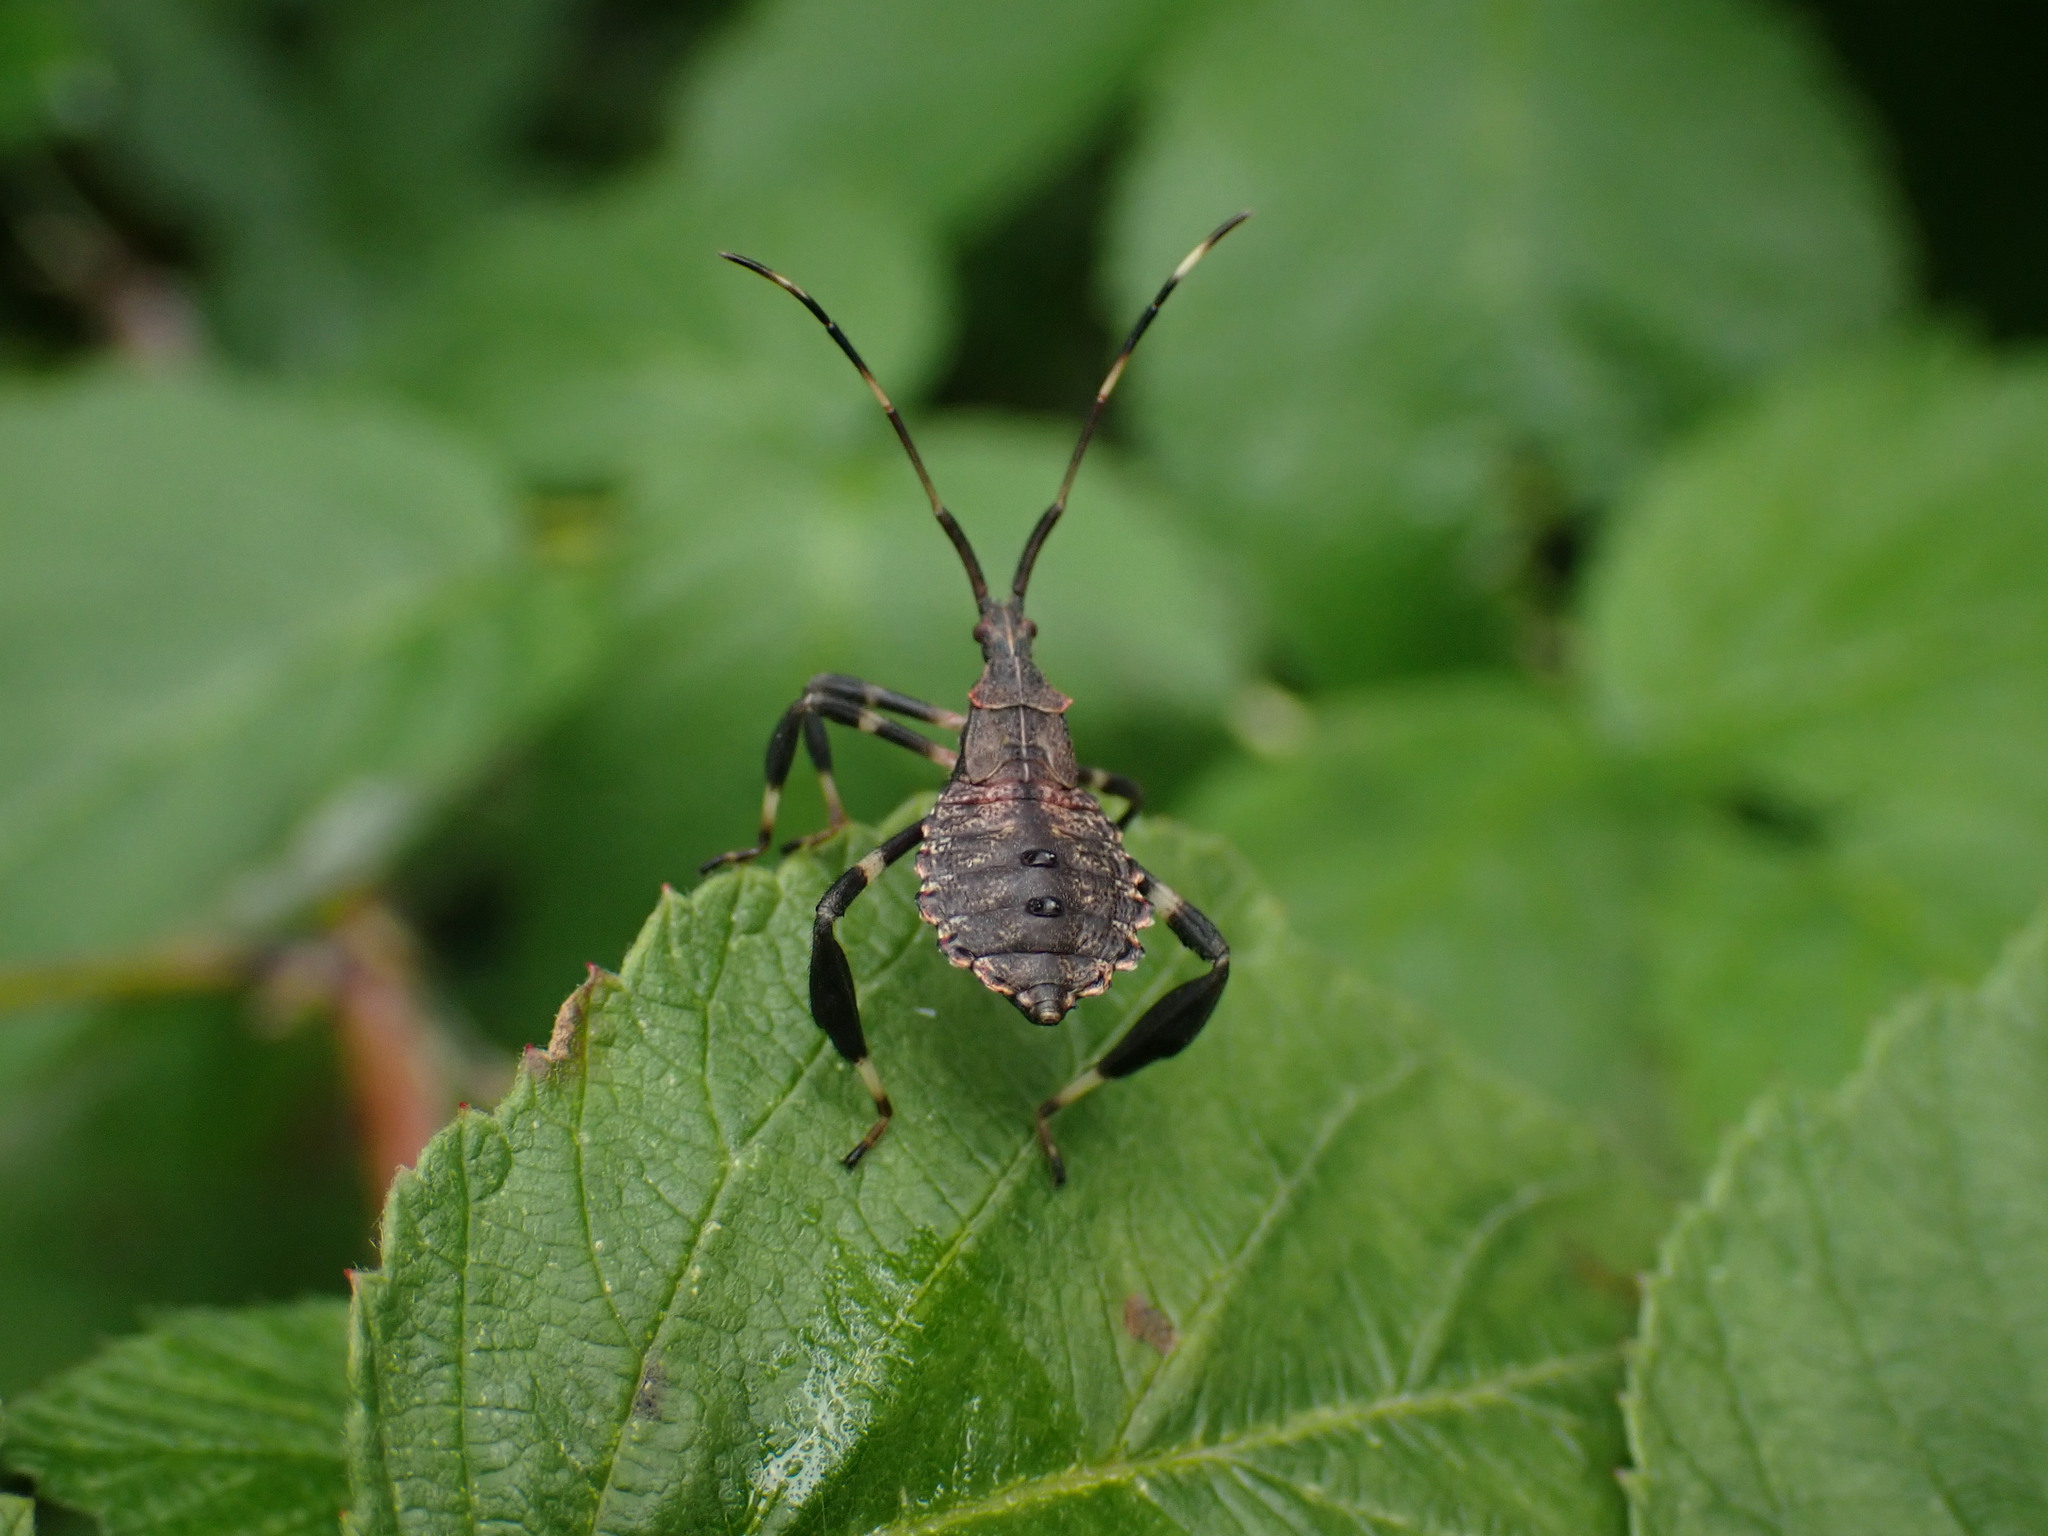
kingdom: Animalia
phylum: Arthropoda
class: Insecta
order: Hemiptera
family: Coreidae
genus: Acanthocephala
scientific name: Acanthocephala terminalis
